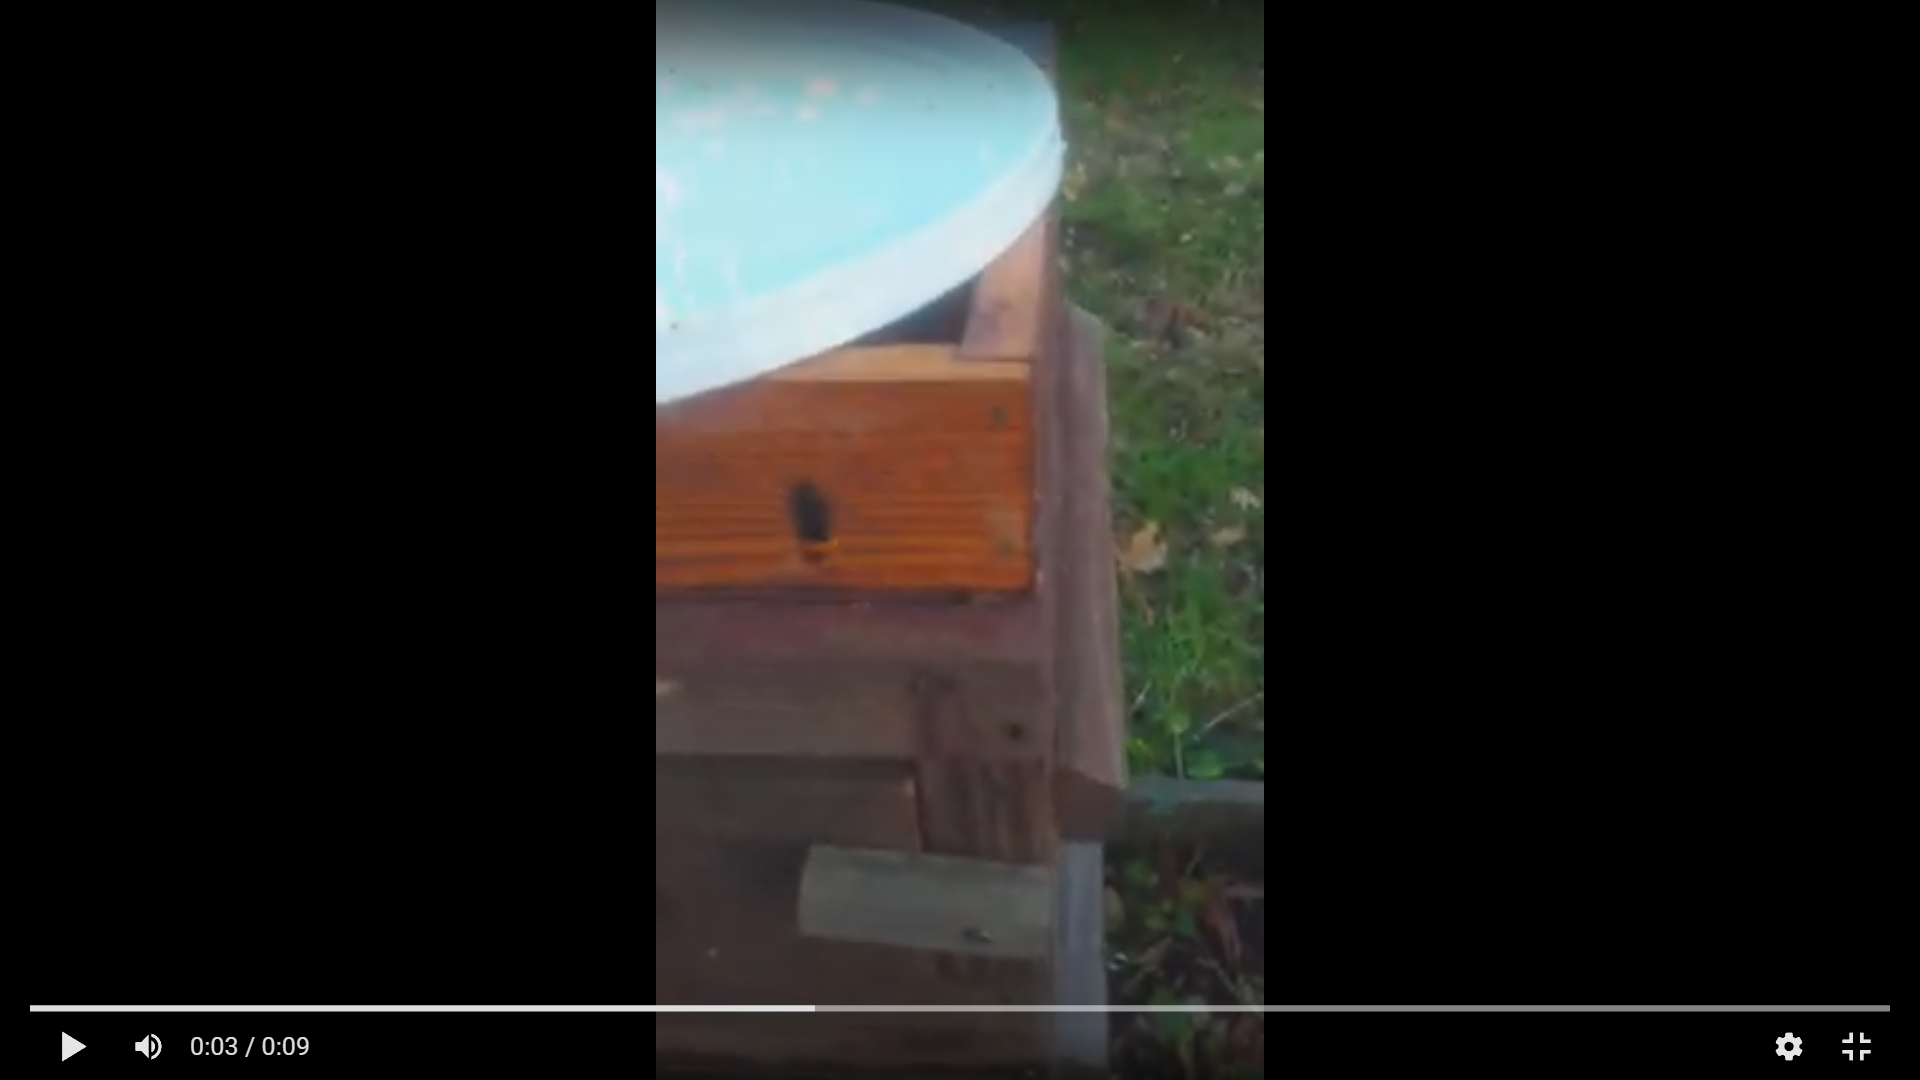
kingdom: Animalia
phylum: Arthropoda
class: Insecta
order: Hymenoptera
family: Vespidae
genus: Vespa
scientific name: Vespa velutina
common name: Asian hornet
